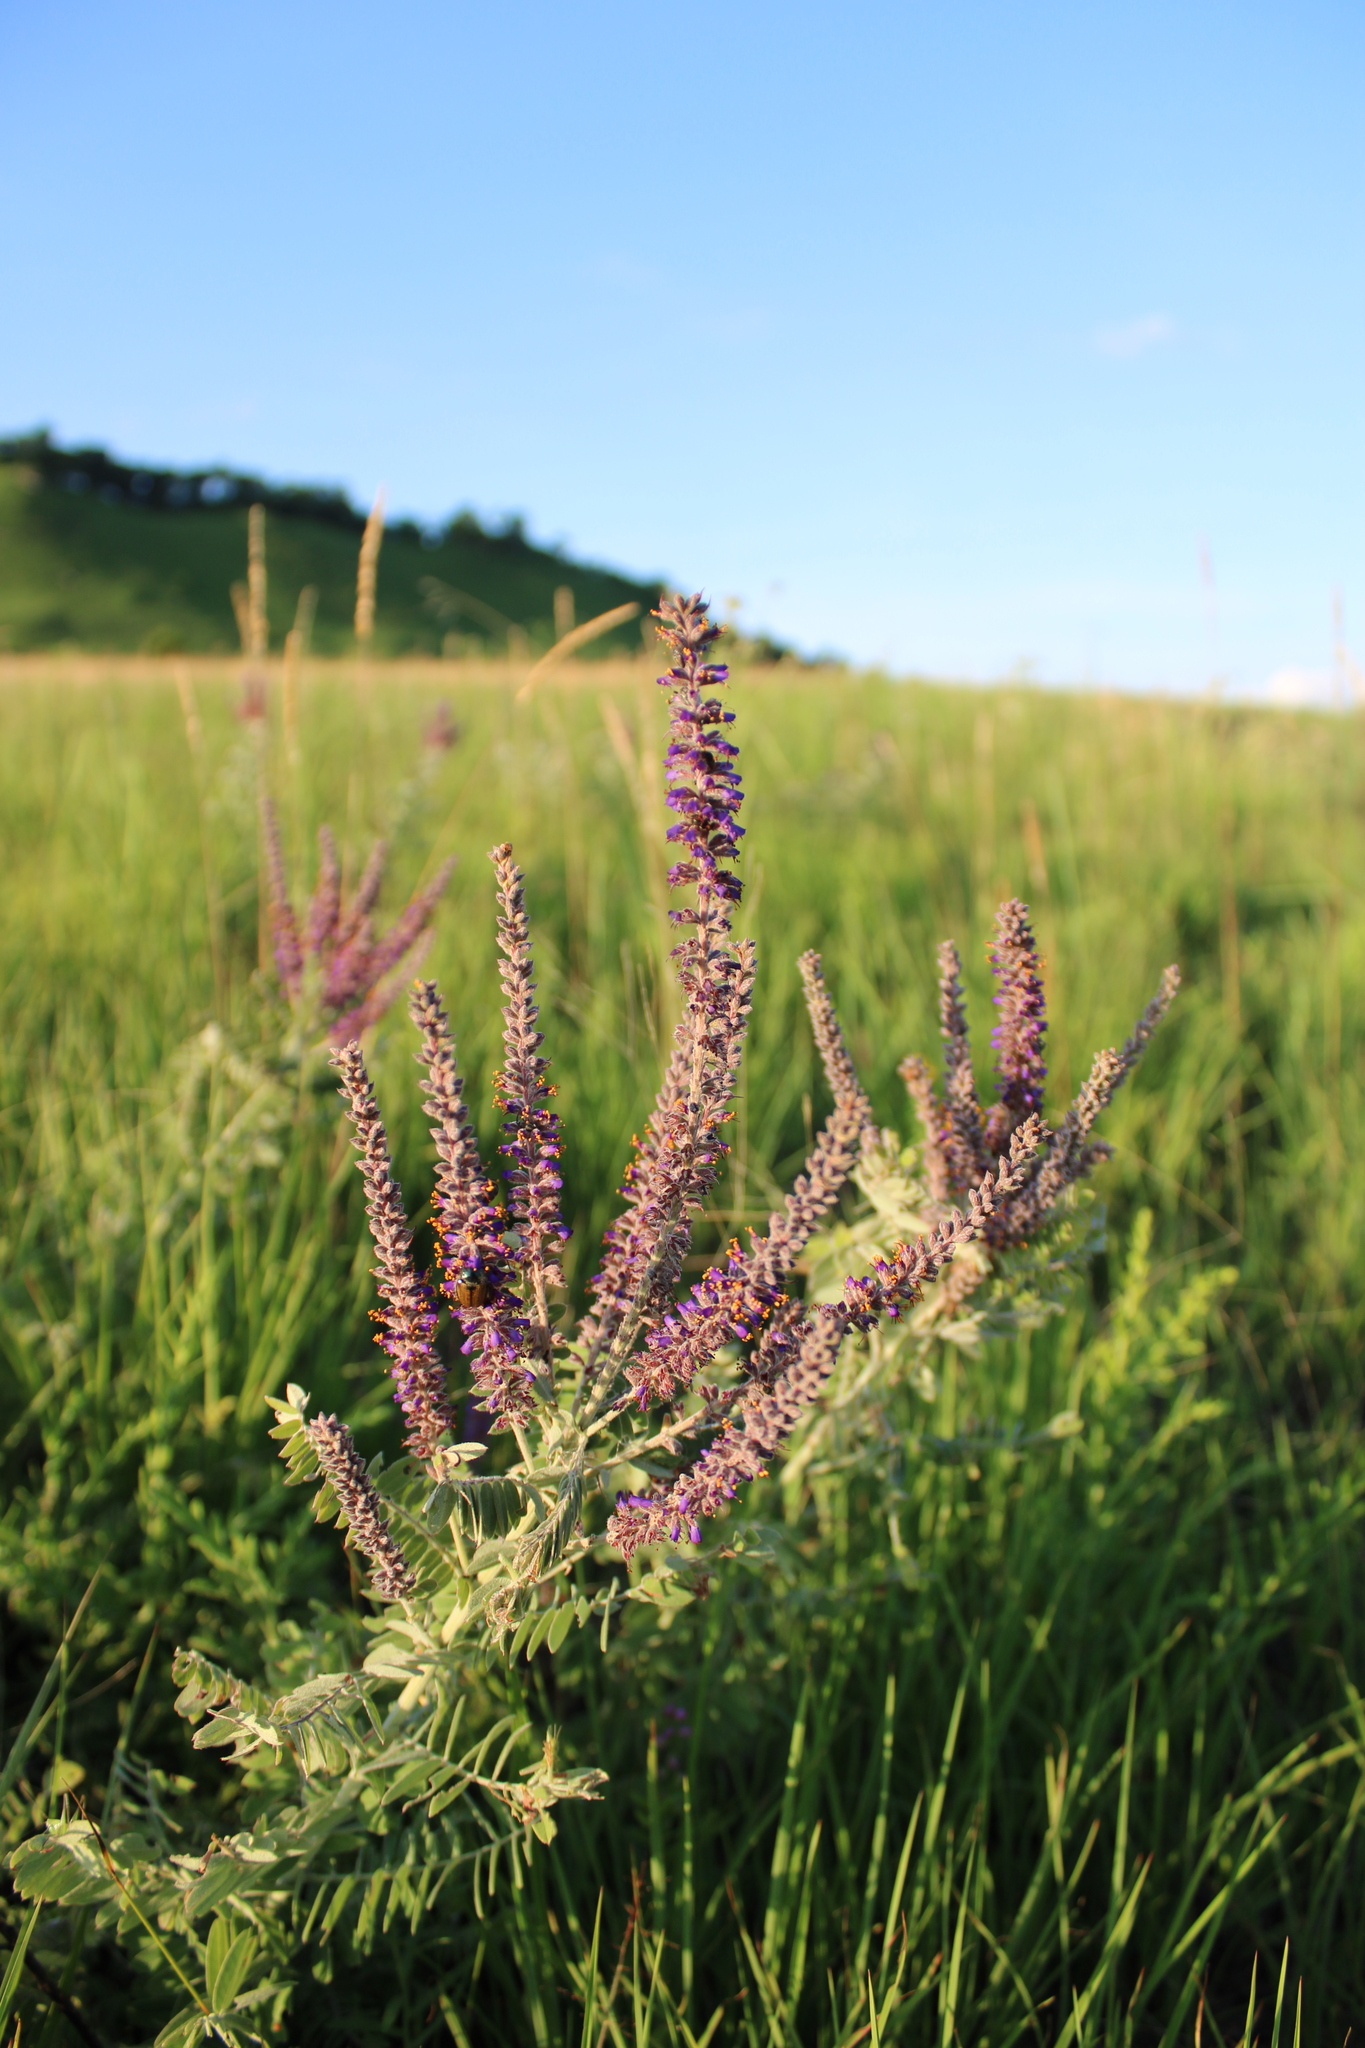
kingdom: Plantae
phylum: Tracheophyta
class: Magnoliopsida
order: Fabales
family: Fabaceae
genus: Amorpha
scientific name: Amorpha canescens
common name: Leadplant
